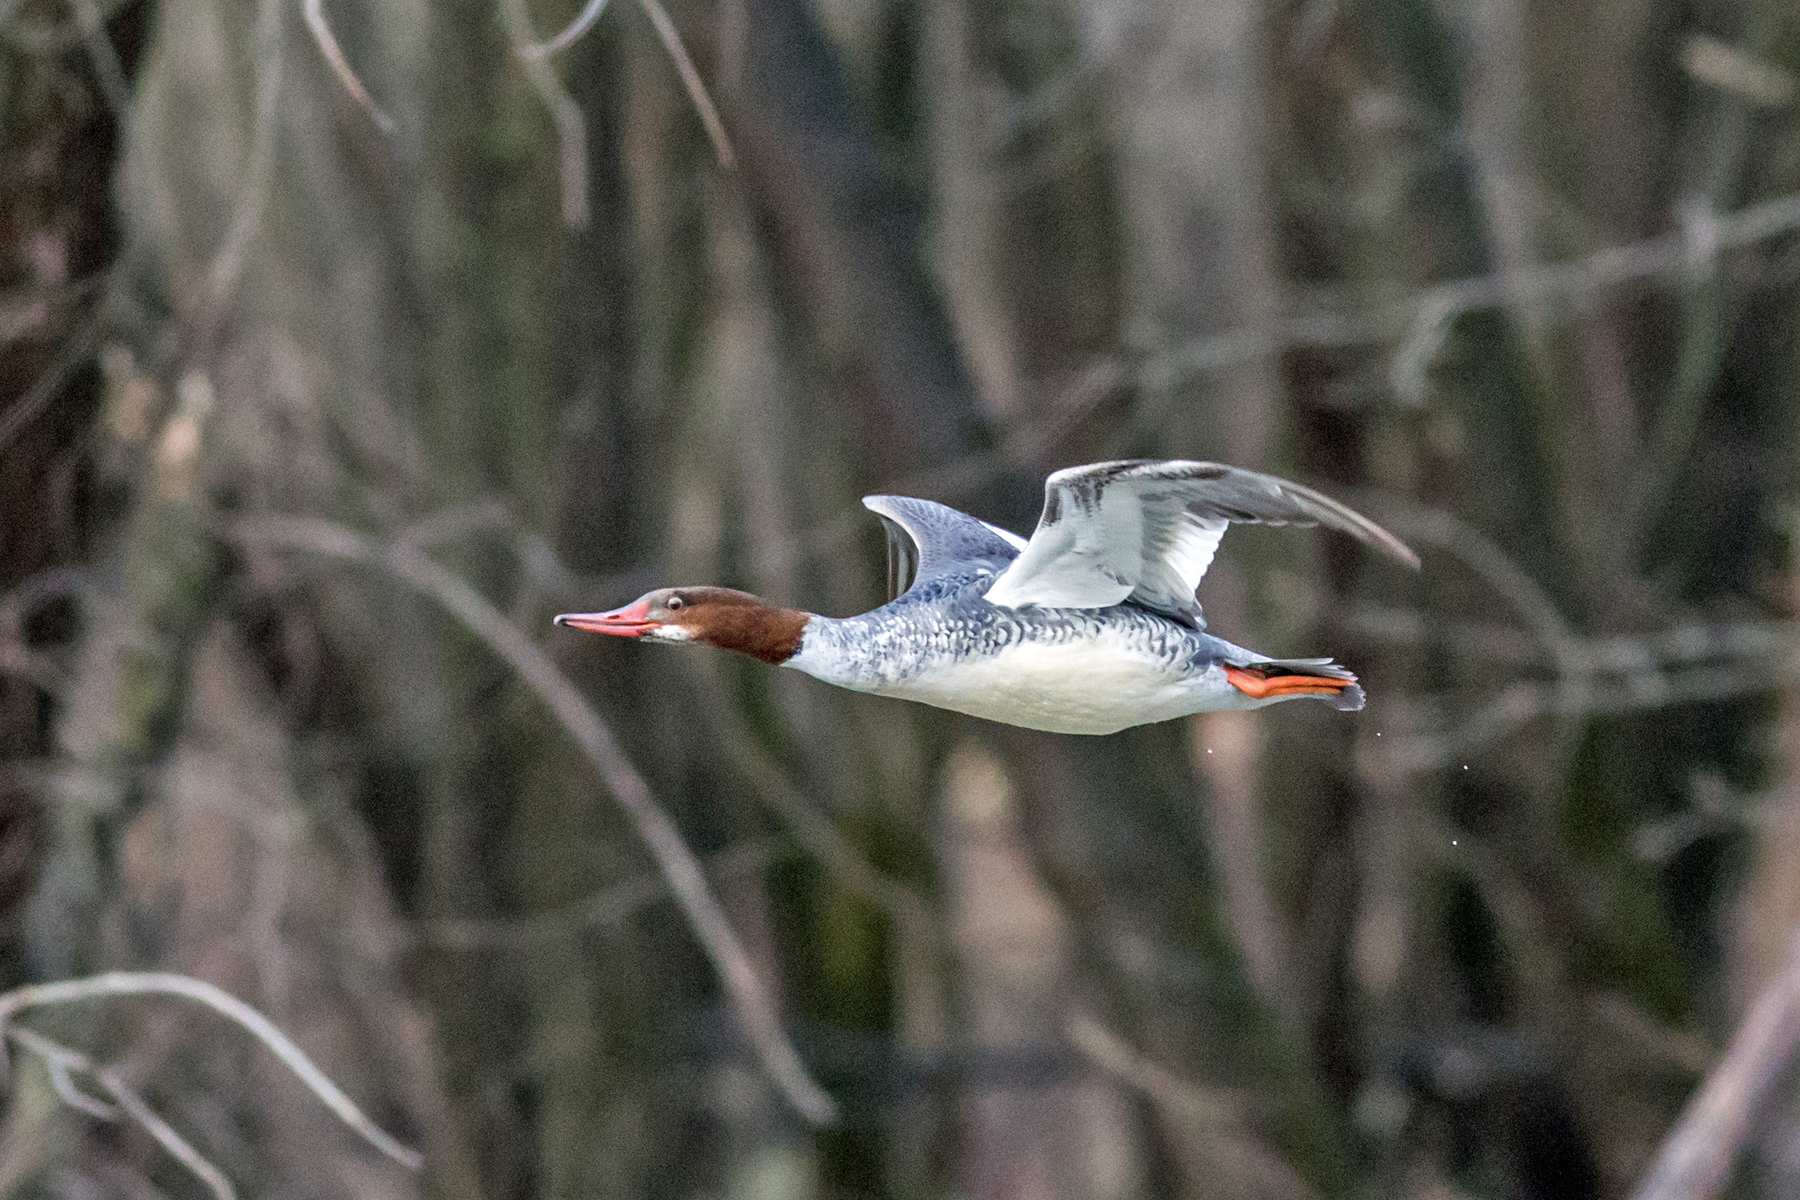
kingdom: Animalia
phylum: Chordata
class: Aves
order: Anseriformes
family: Anatidae
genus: Mergus
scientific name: Mergus merganser
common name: Common merganser
